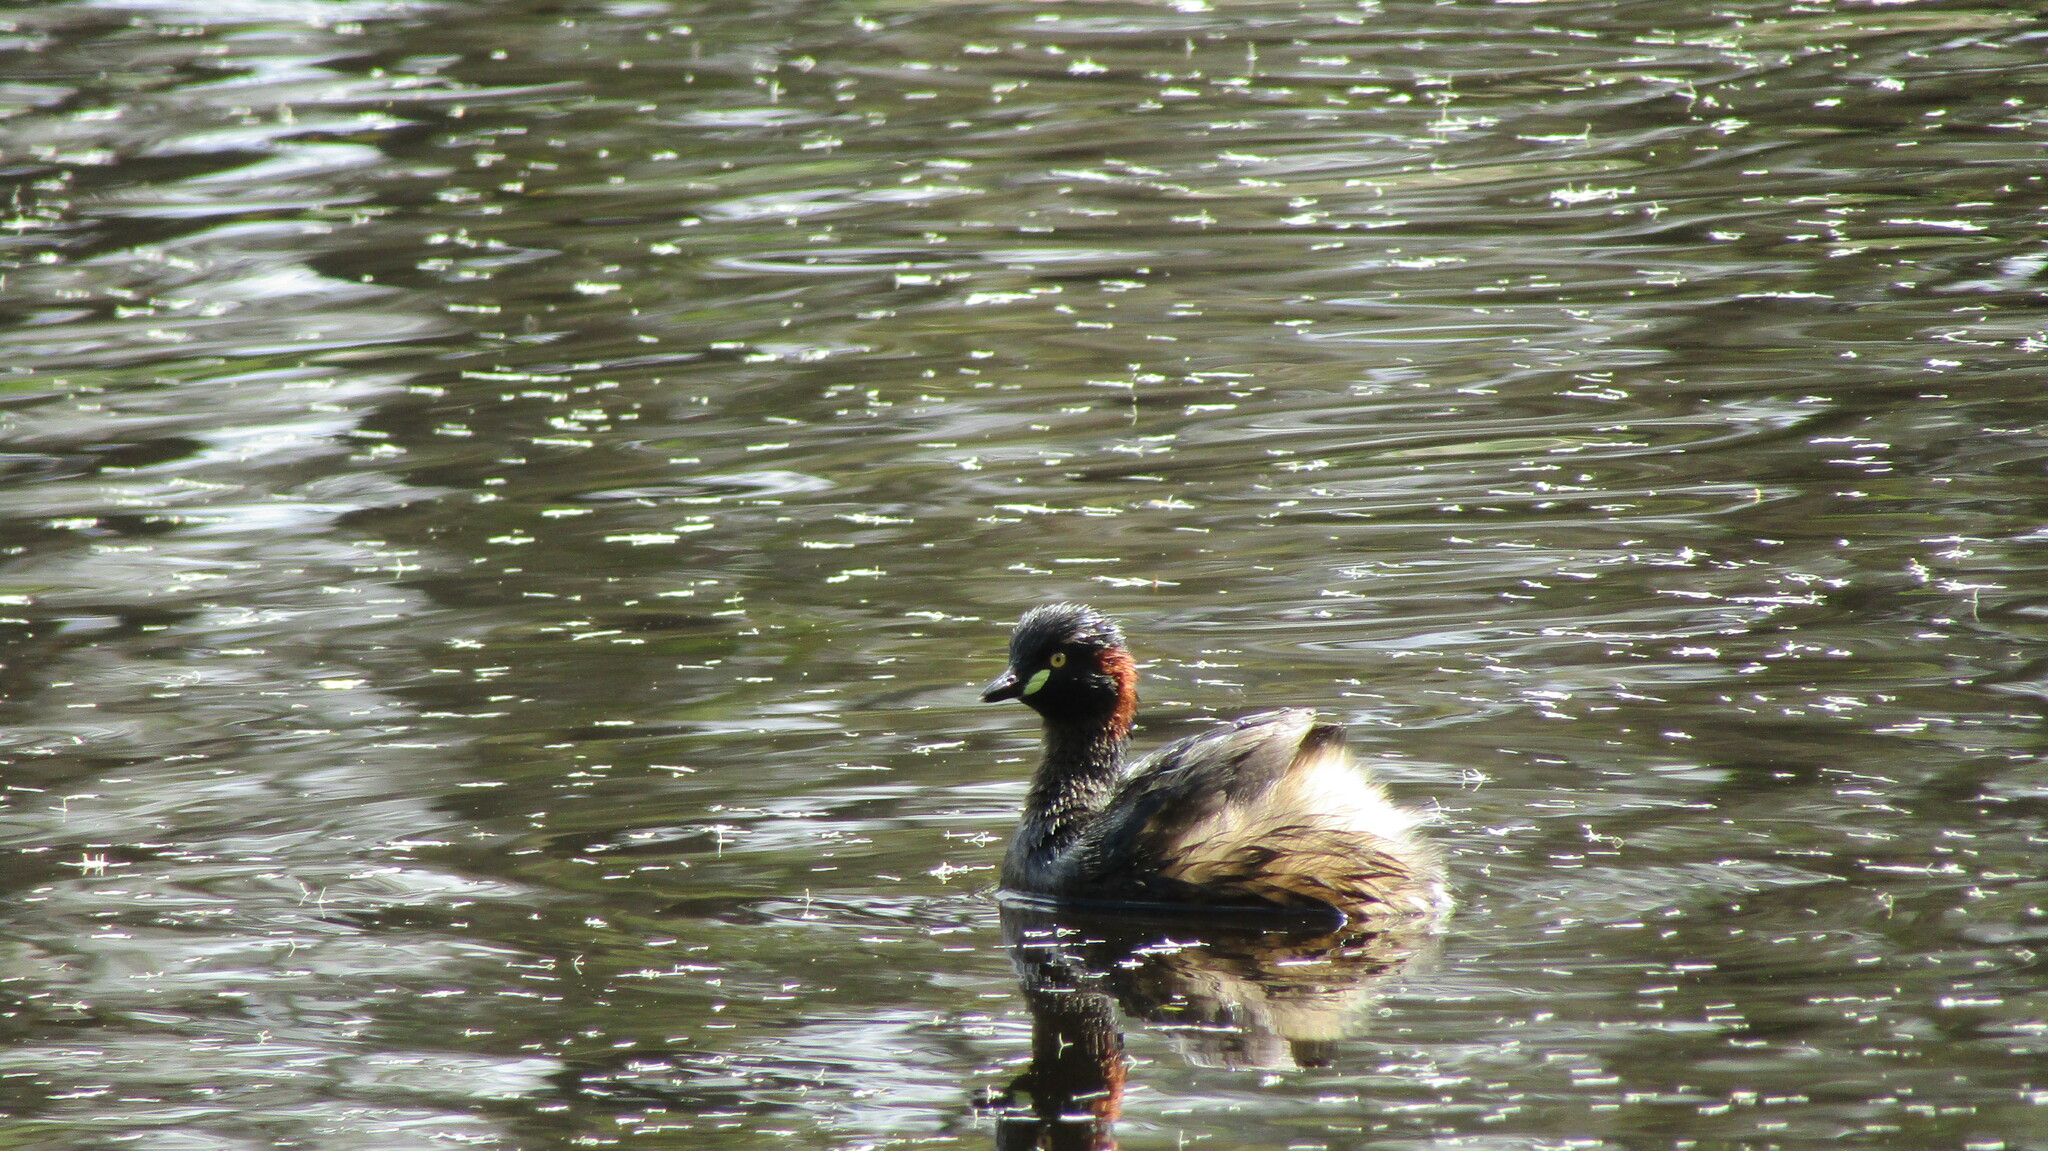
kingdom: Animalia
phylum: Chordata
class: Aves
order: Podicipediformes
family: Podicipedidae
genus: Tachybaptus
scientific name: Tachybaptus novaehollandiae
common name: Australasian grebe
